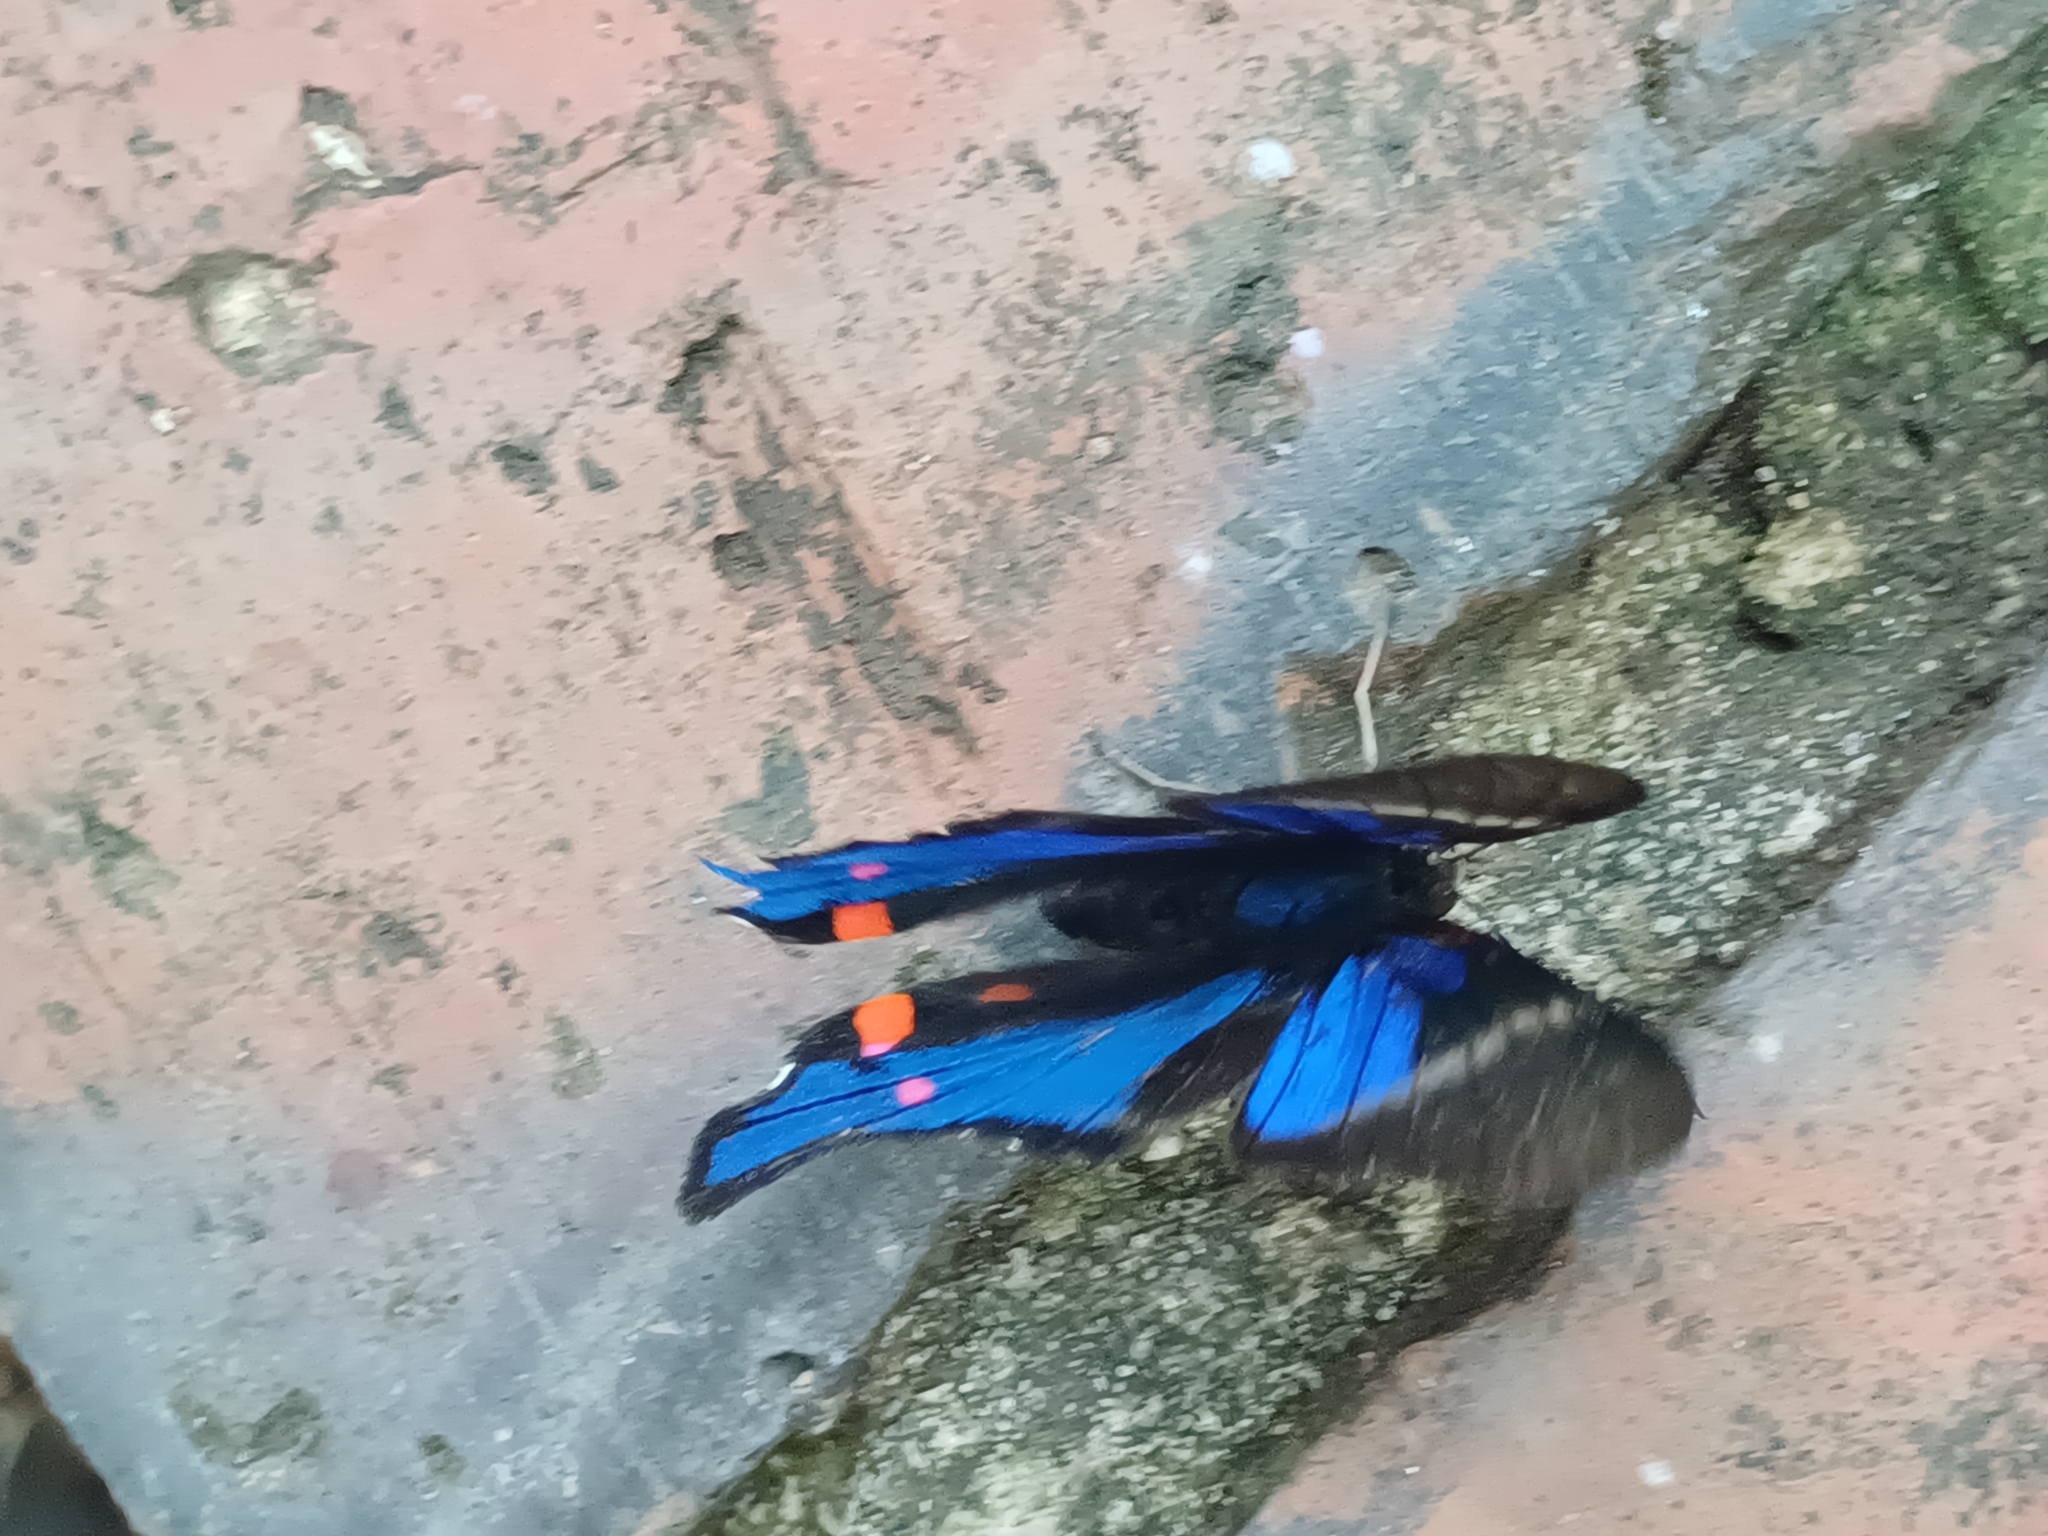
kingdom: Animalia
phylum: Arthropoda
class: Insecta
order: Lepidoptera
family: Riodinidae
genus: Rhetus
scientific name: Rhetus periander
